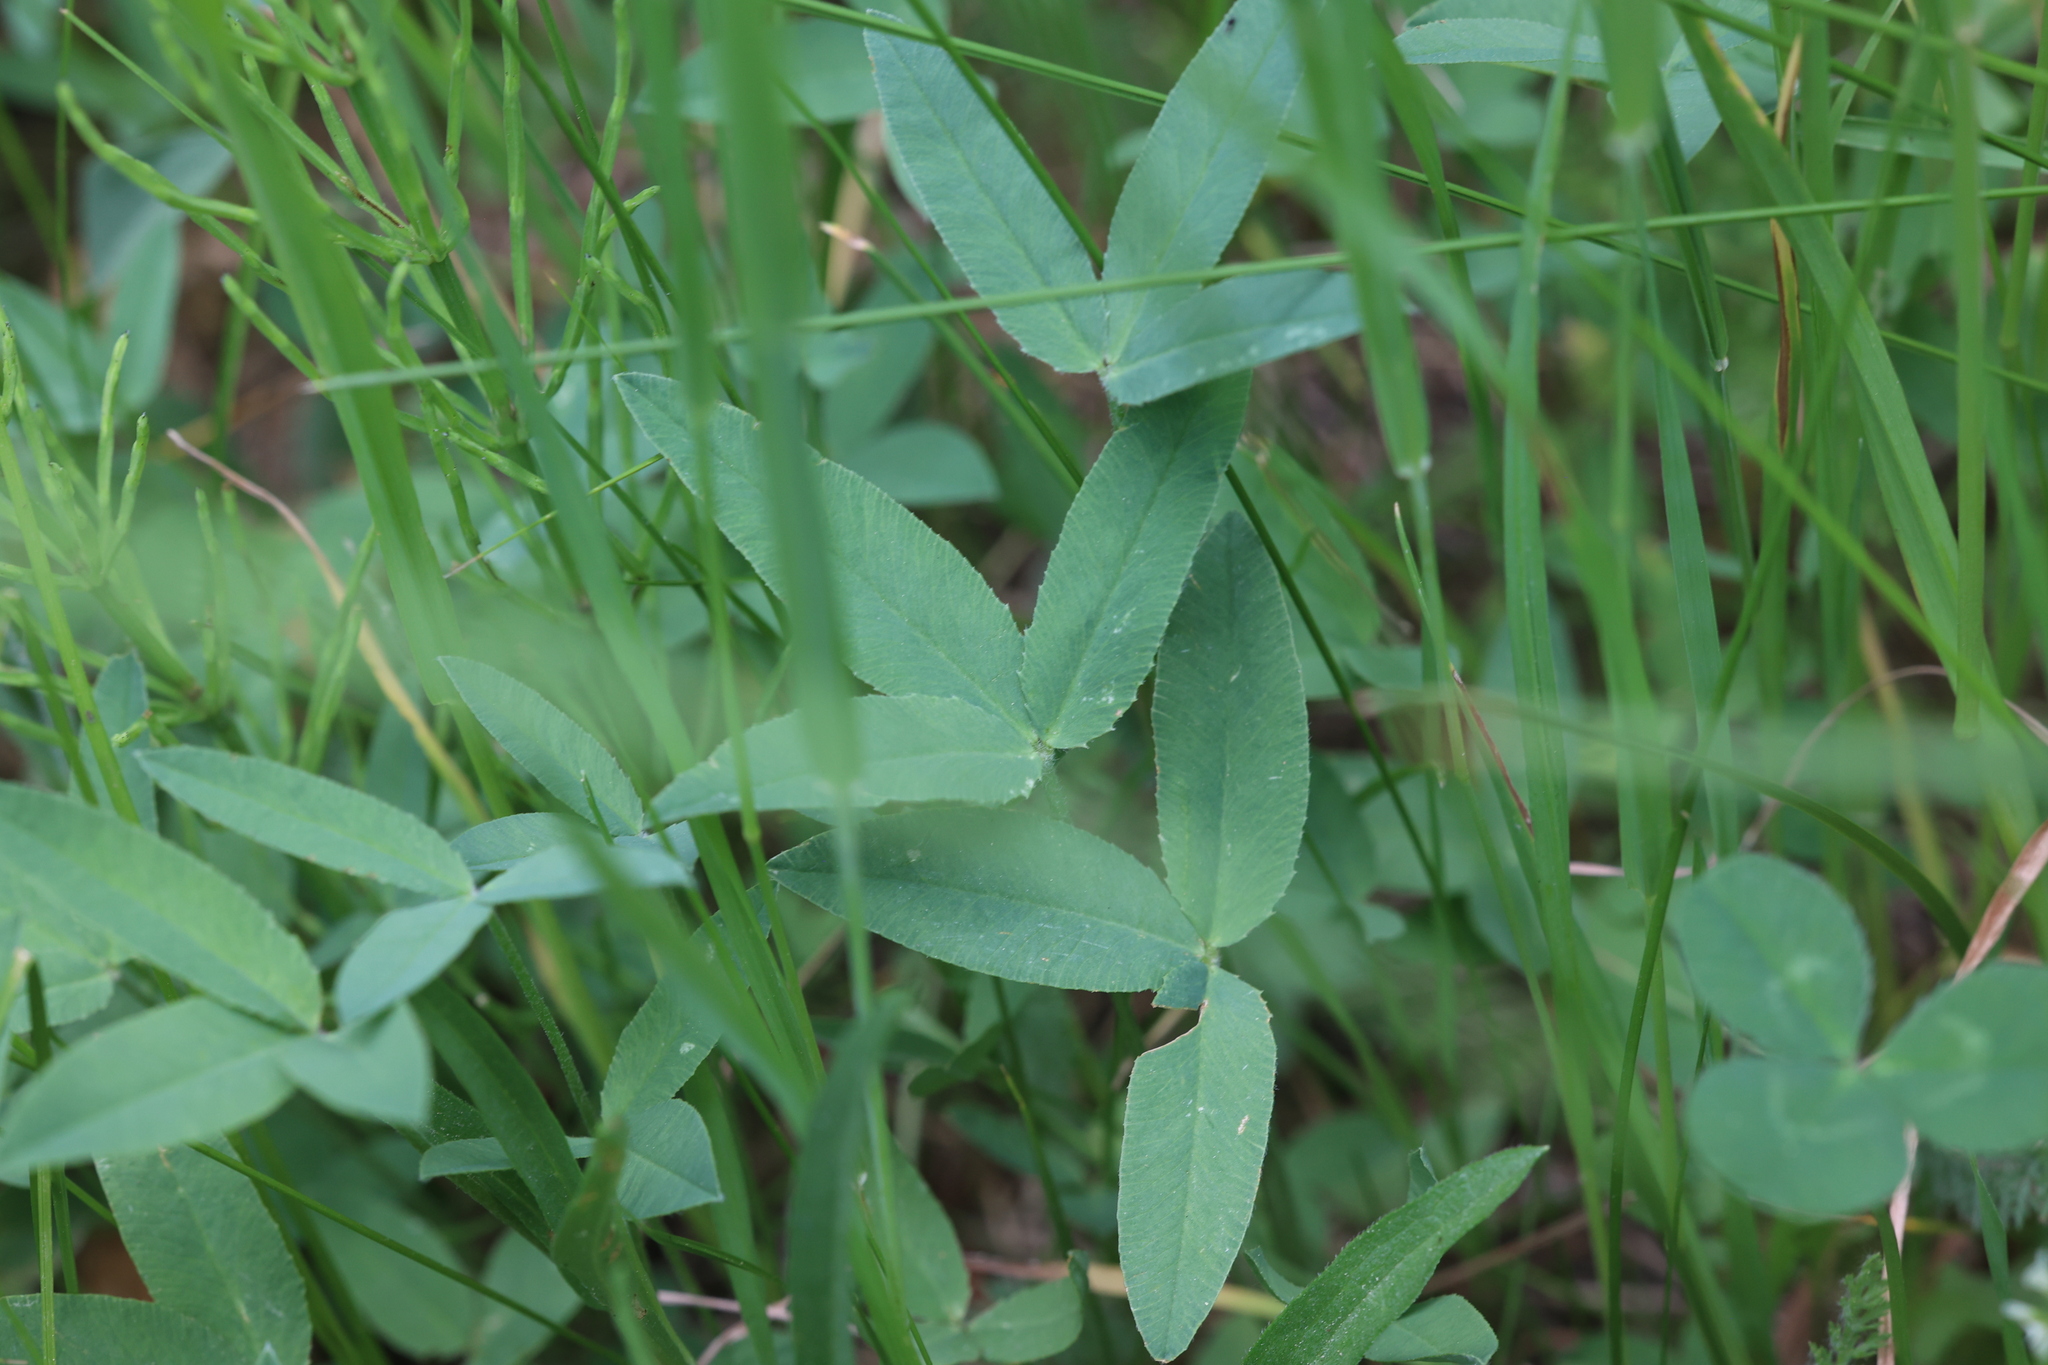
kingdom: Plantae
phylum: Tracheophyta
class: Magnoliopsida
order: Fabales
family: Fabaceae
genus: Trifolium
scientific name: Trifolium longipes
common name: Long-stalk clover
